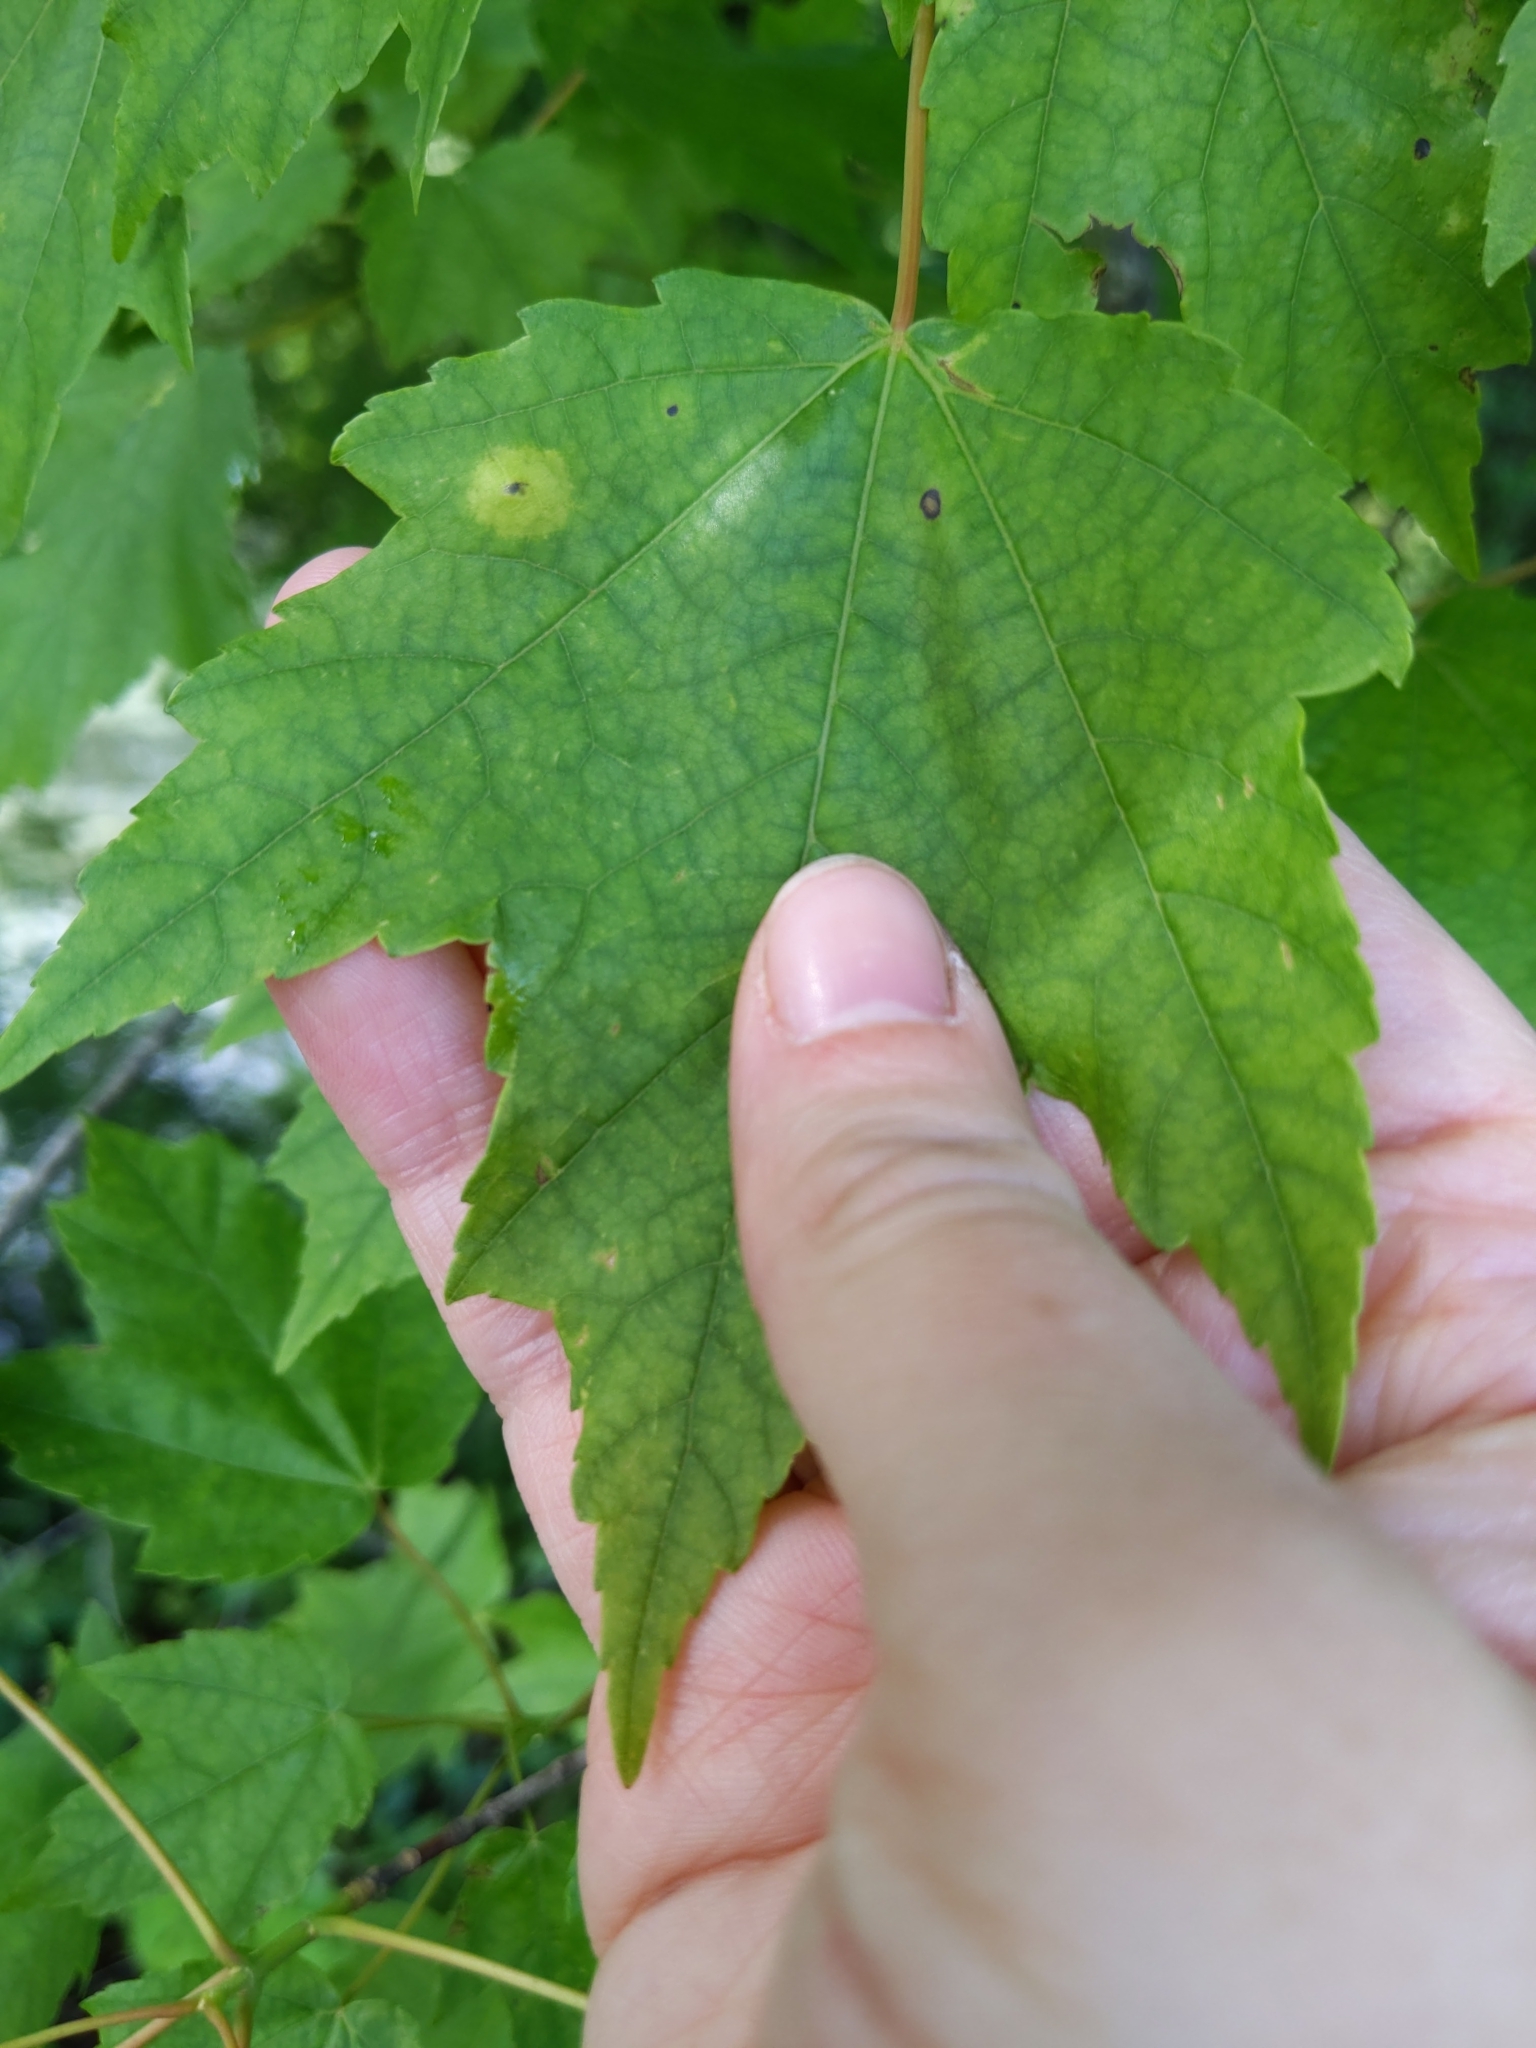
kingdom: Animalia
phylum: Arthropoda
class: Insecta
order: Diptera
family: Cecidomyiidae
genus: Acericecis
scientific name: Acericecis ocellaris
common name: Ocellate gall midge
